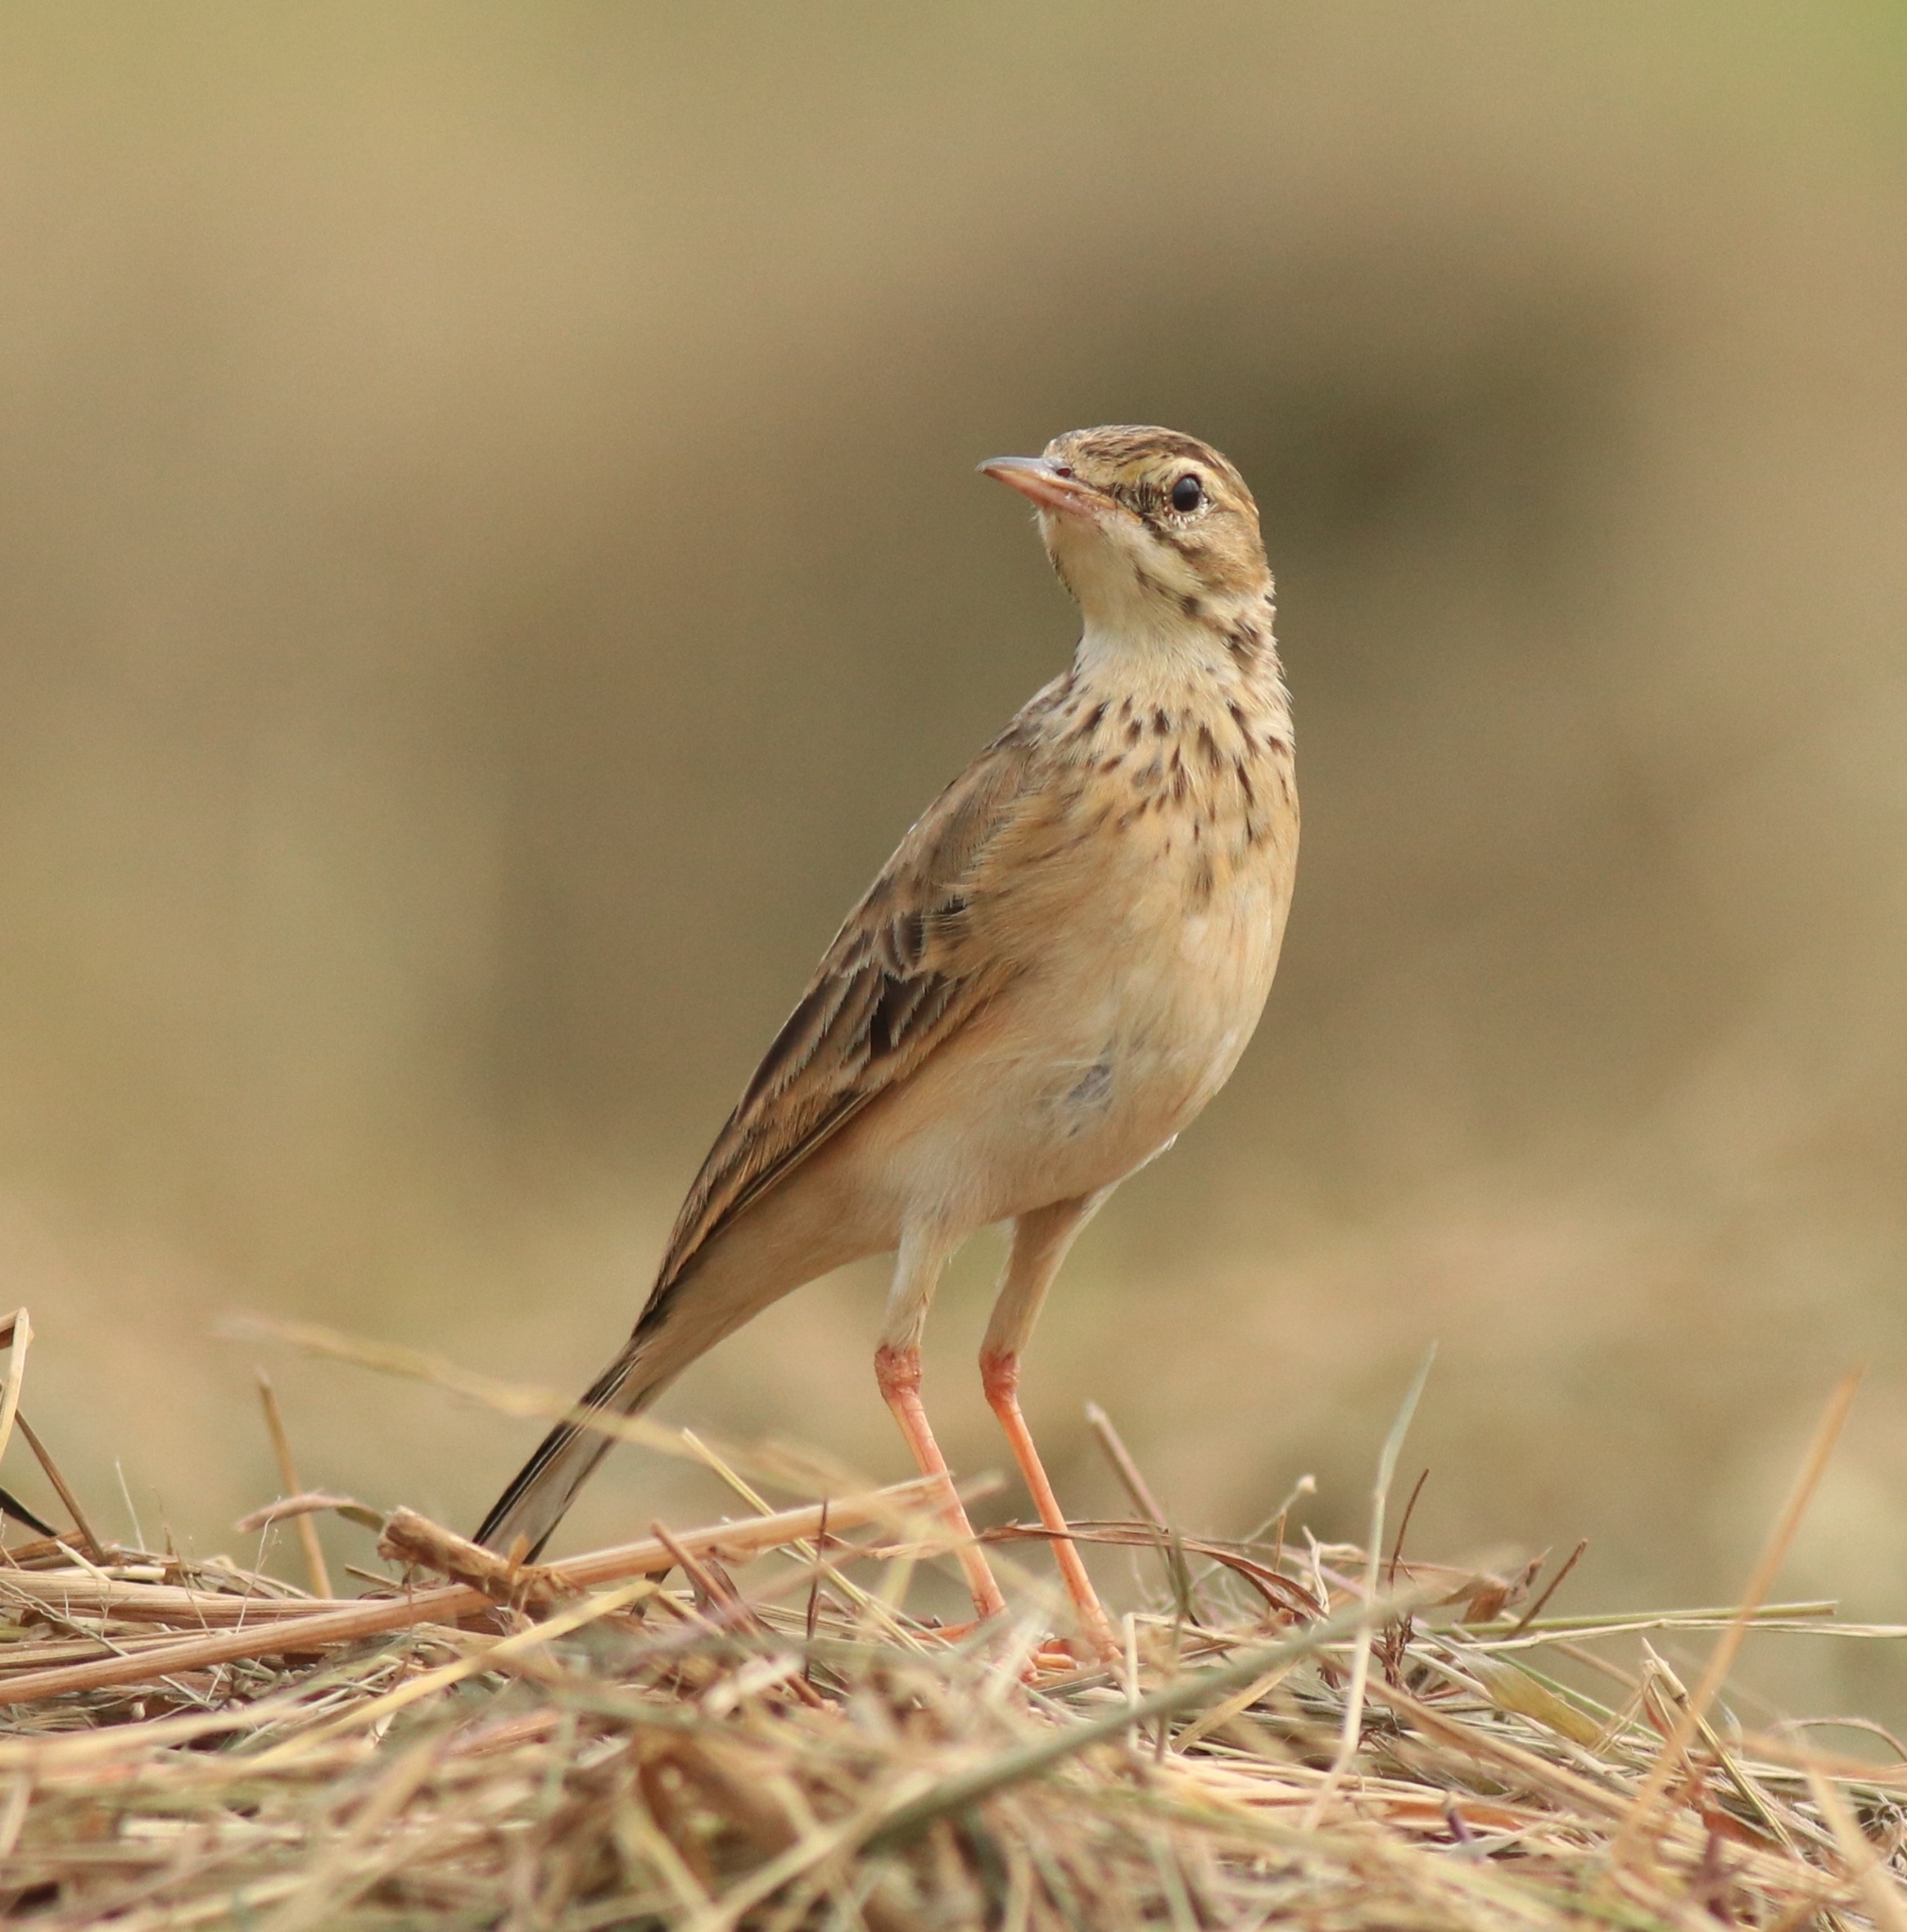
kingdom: Animalia
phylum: Chordata
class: Aves
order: Passeriformes
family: Motacillidae
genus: Anthus
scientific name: Anthus rufulus
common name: Paddyfield pipit
